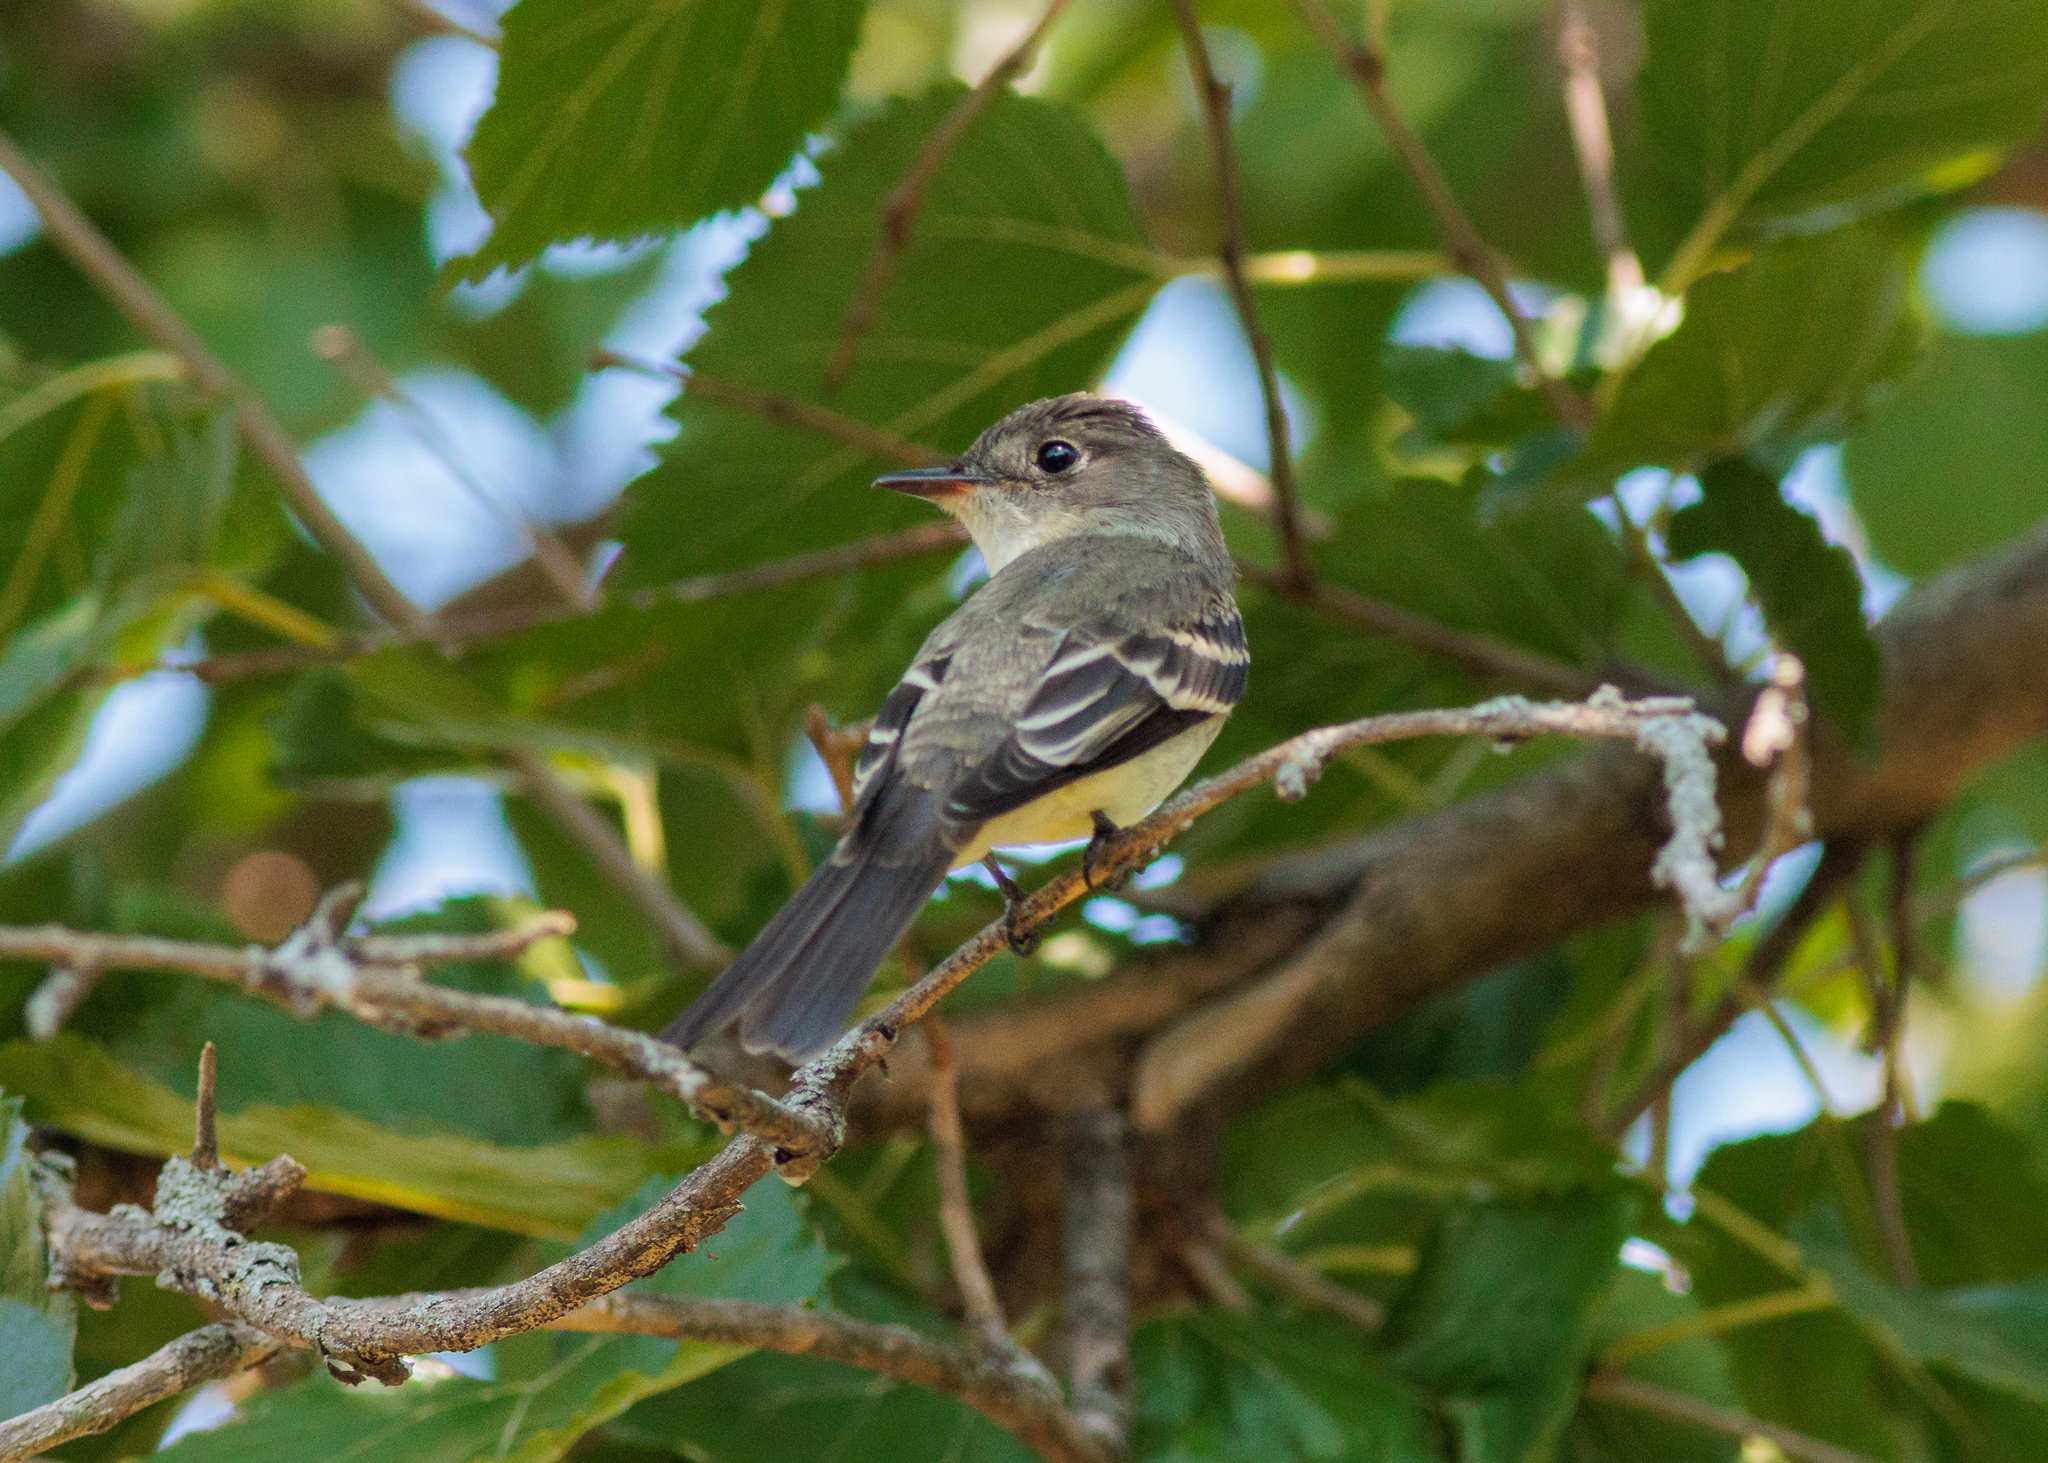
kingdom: Animalia
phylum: Chordata
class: Aves
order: Passeriformes
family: Tyrannidae
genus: Contopus
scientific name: Contopus virens
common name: Eastern wood-pewee
